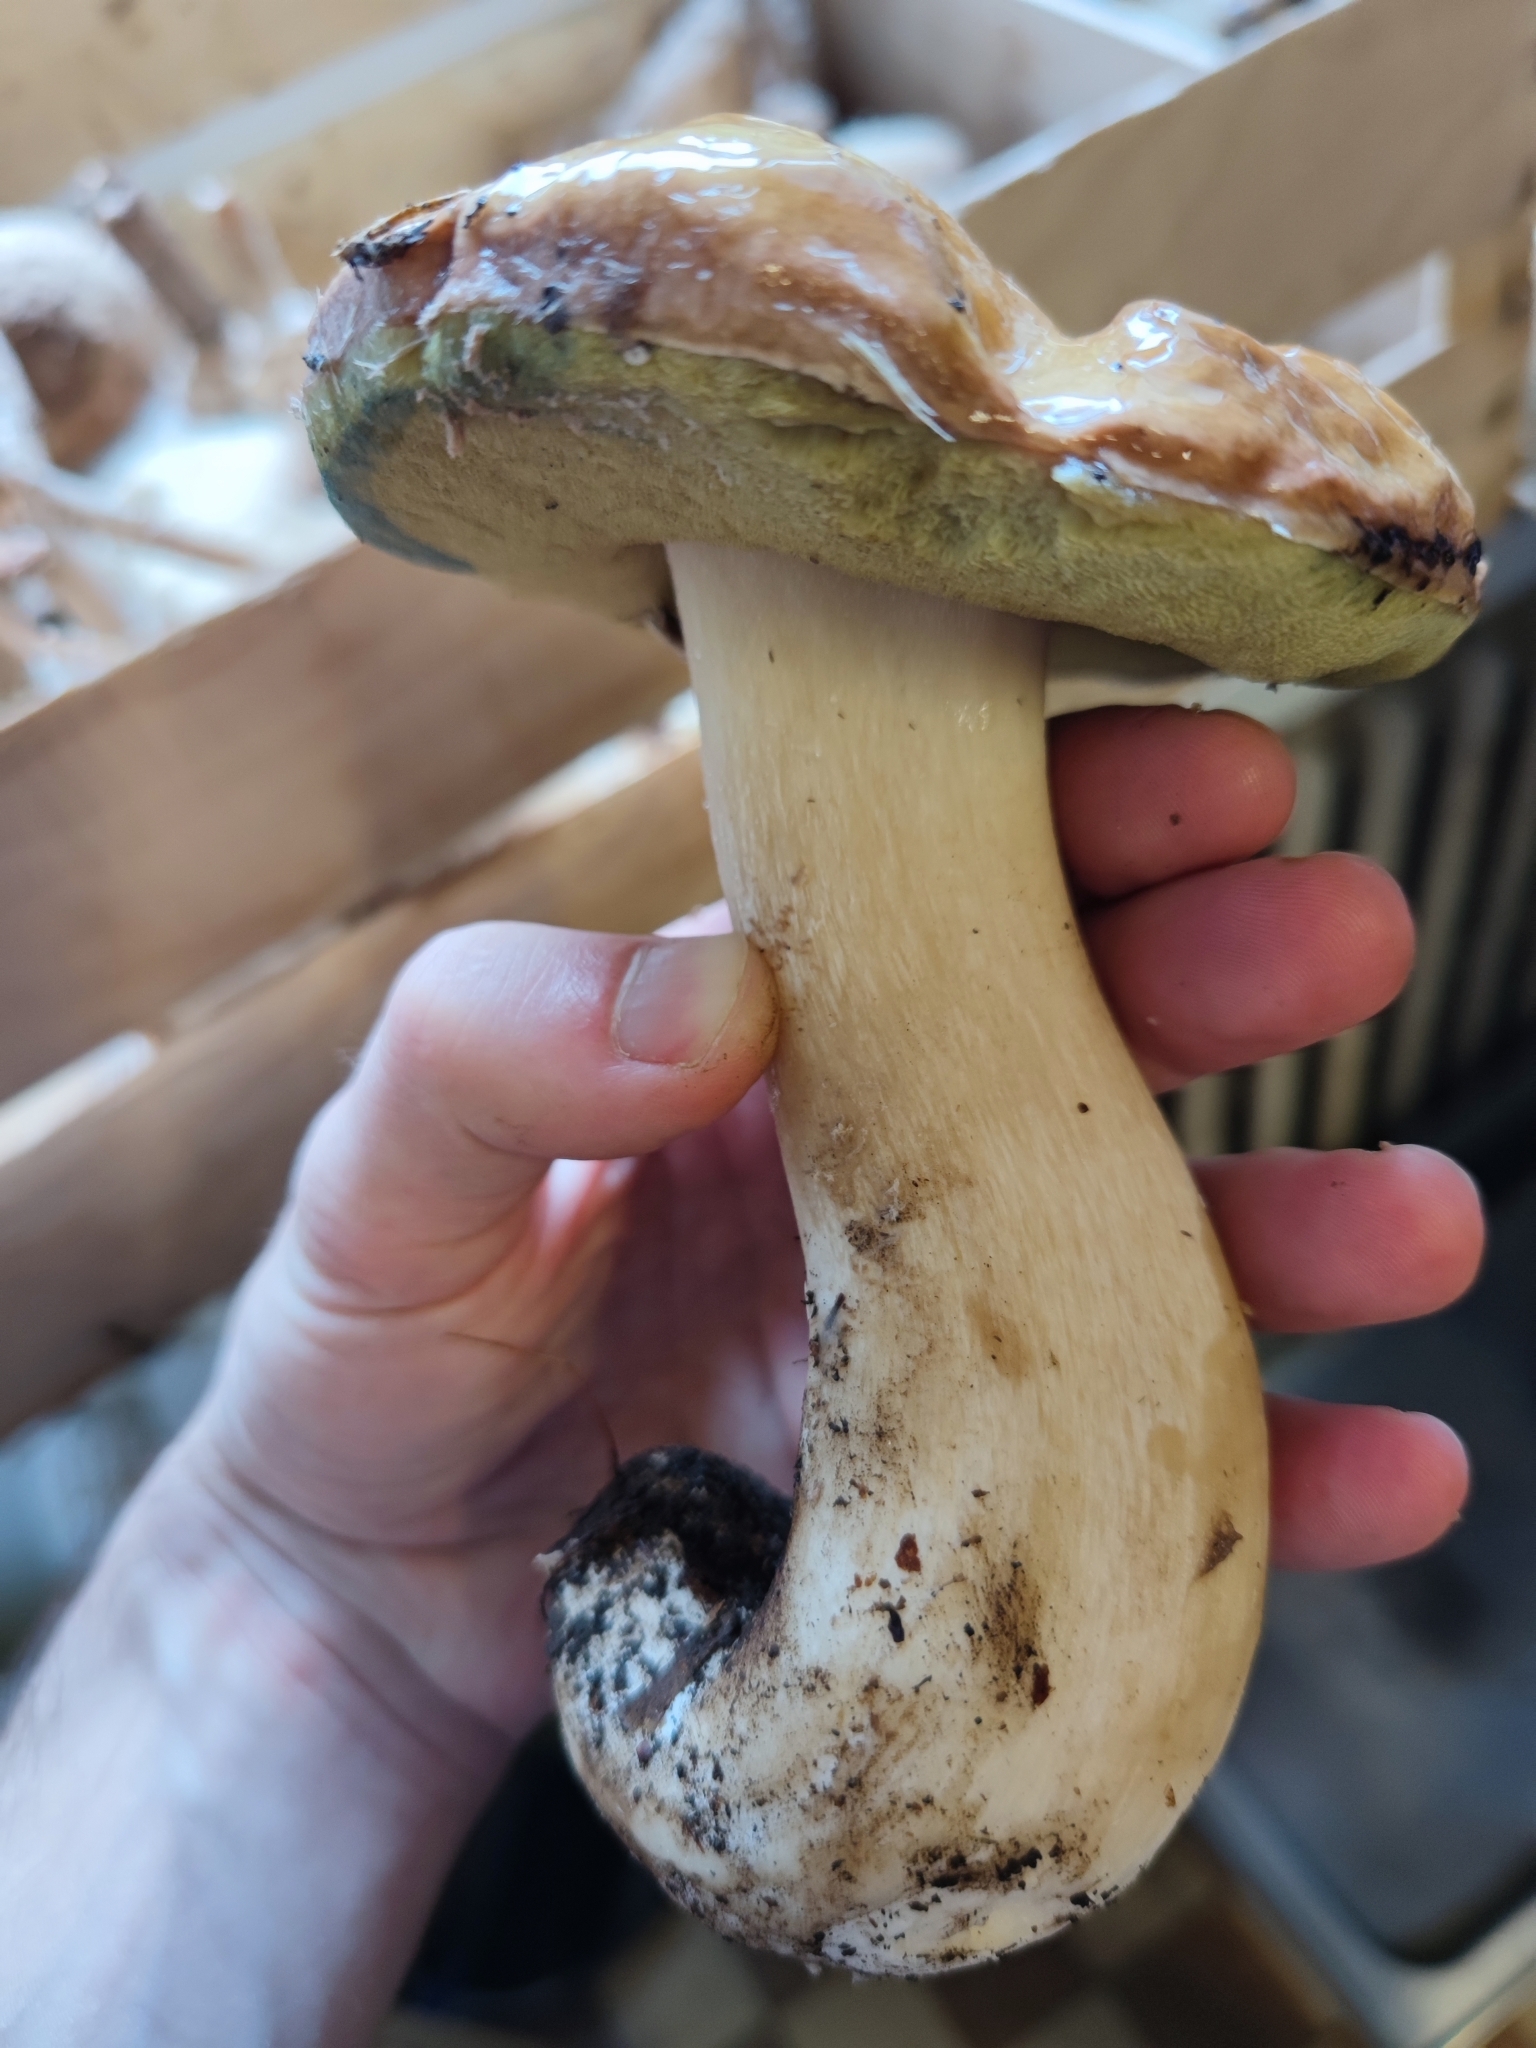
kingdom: Fungi
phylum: Basidiomycota
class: Agaricomycetes
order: Boletales
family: Boletaceae
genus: Boletus
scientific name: Boletus edulis
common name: Cep
